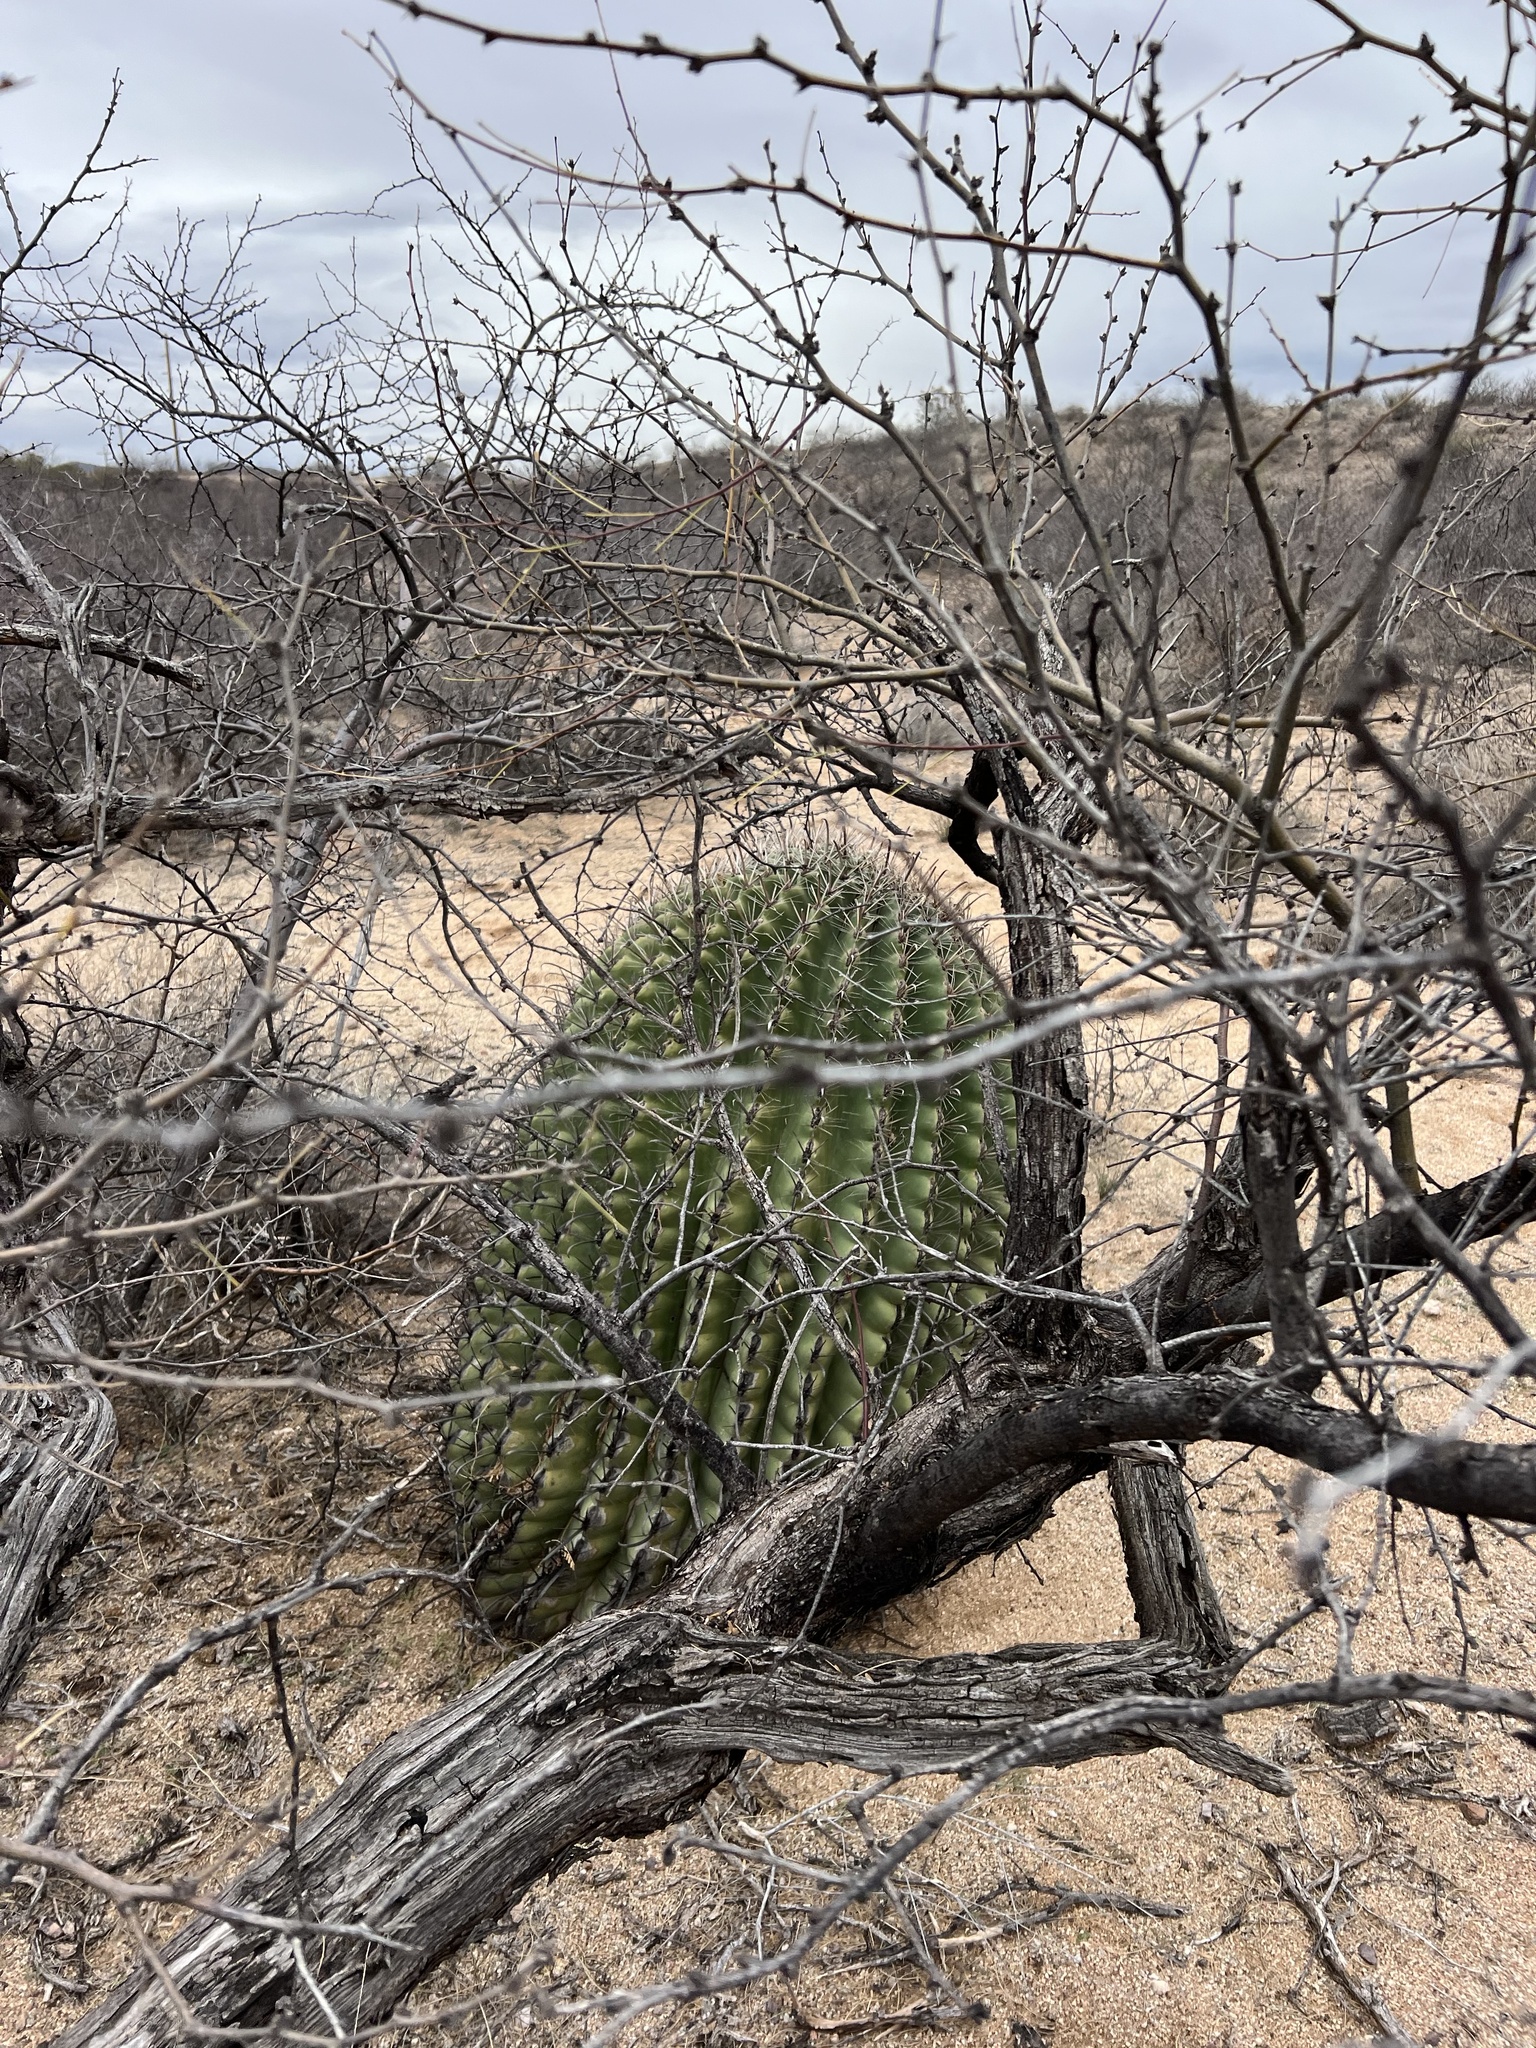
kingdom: Plantae
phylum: Tracheophyta
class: Magnoliopsida
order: Caryophyllales
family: Cactaceae
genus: Ferocactus
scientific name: Ferocactus wislizeni
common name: Candy barrel cactus
